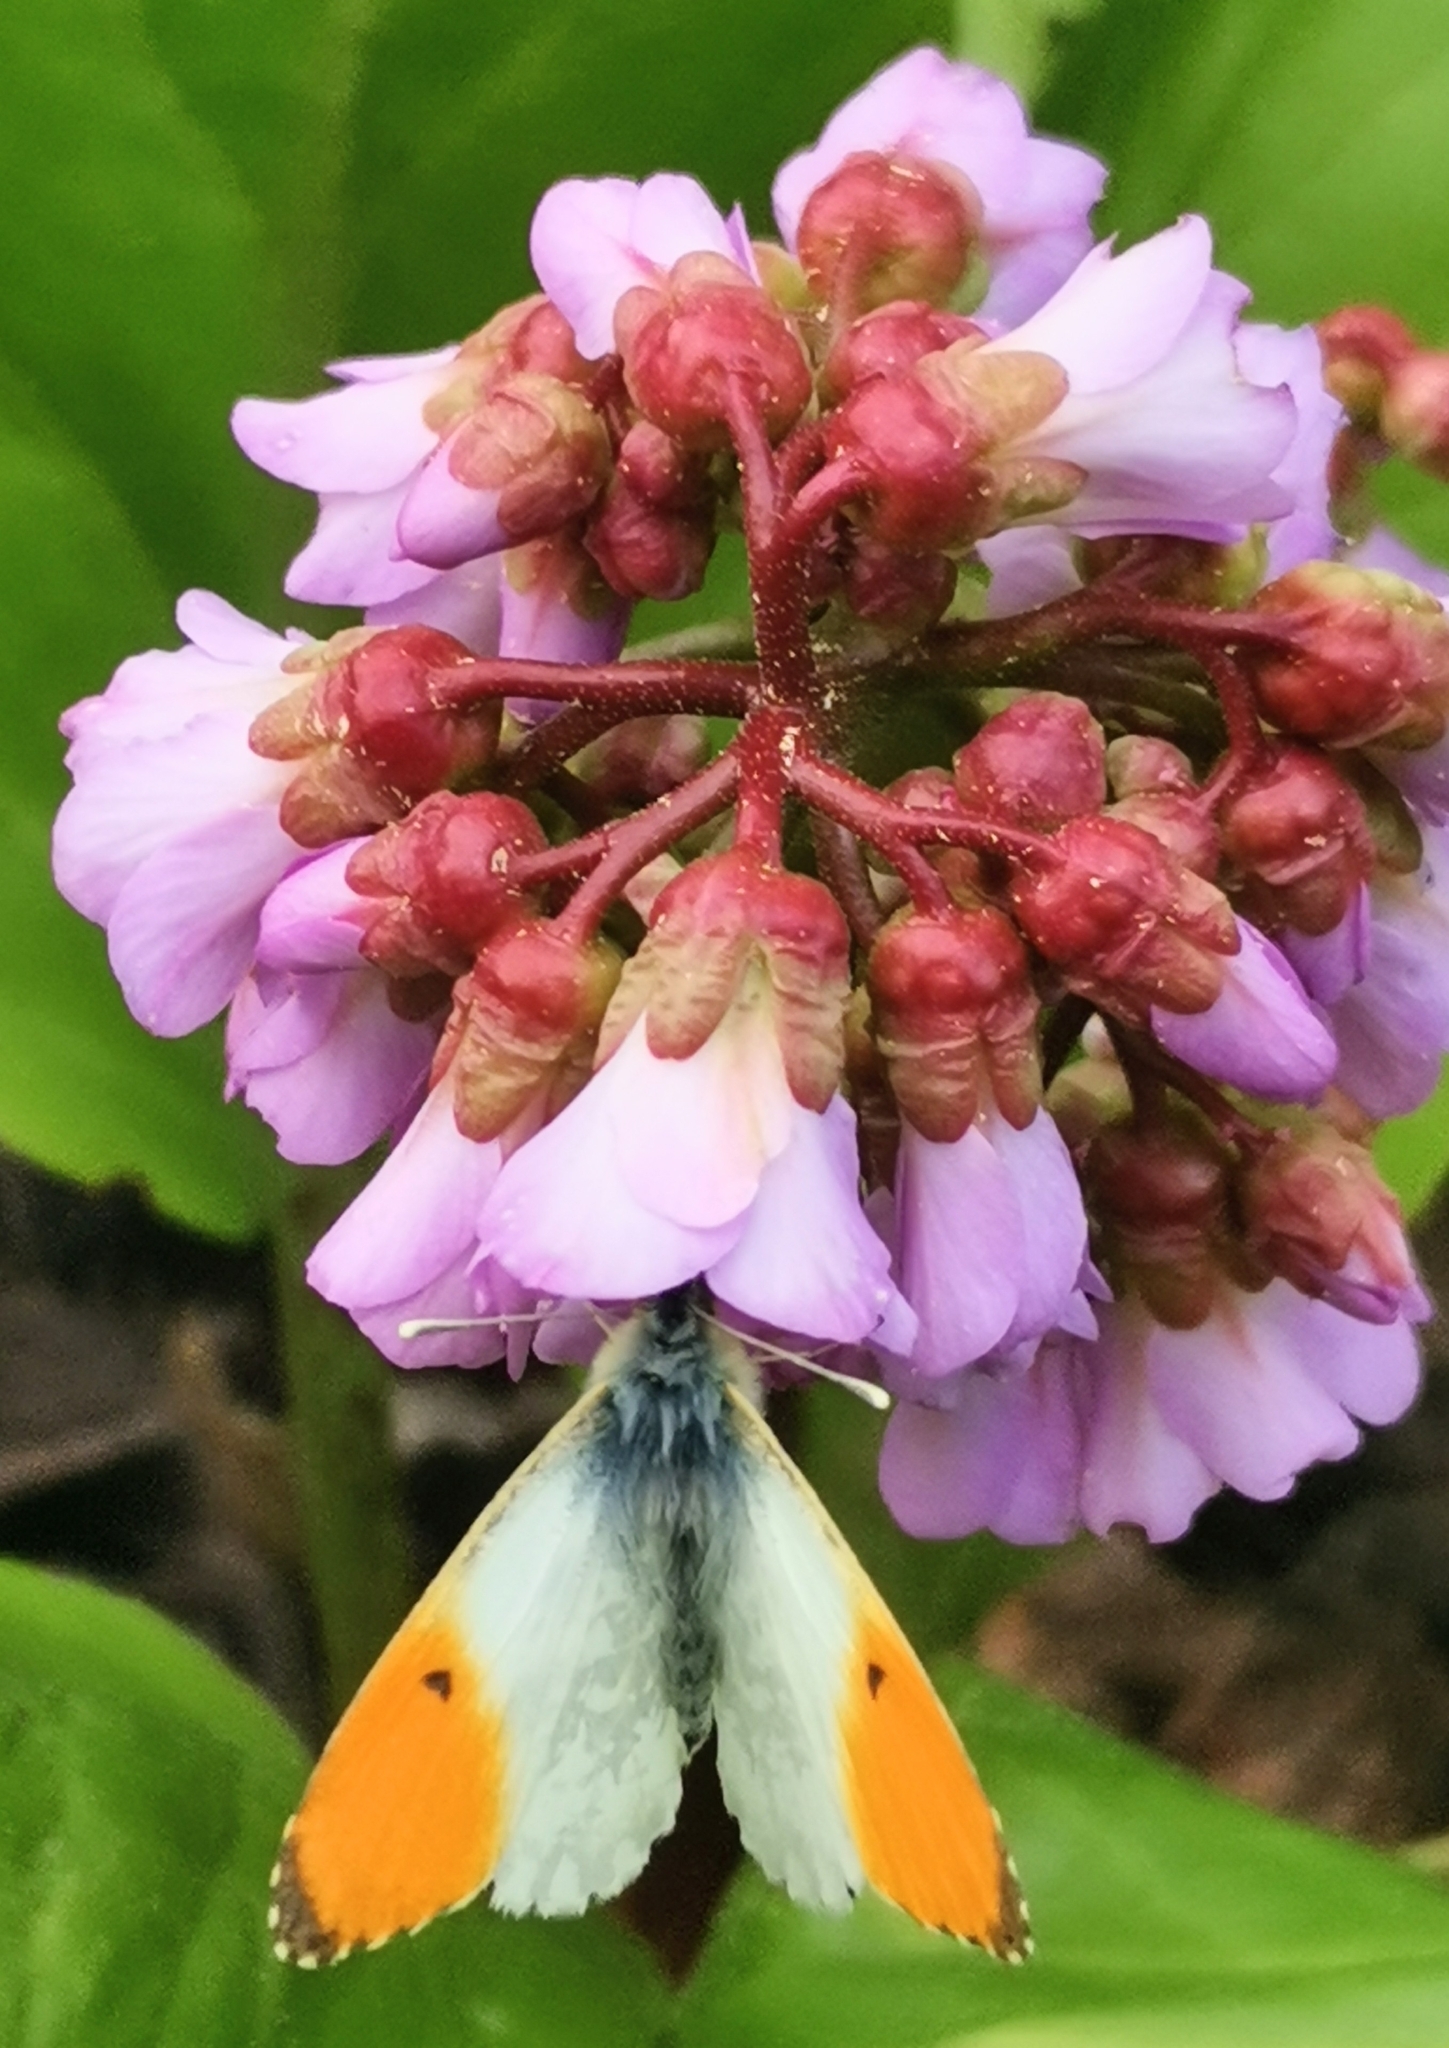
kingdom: Animalia
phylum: Arthropoda
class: Insecta
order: Lepidoptera
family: Pieridae
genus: Anthocharis
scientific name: Anthocharis cardamines
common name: Orange-tip
